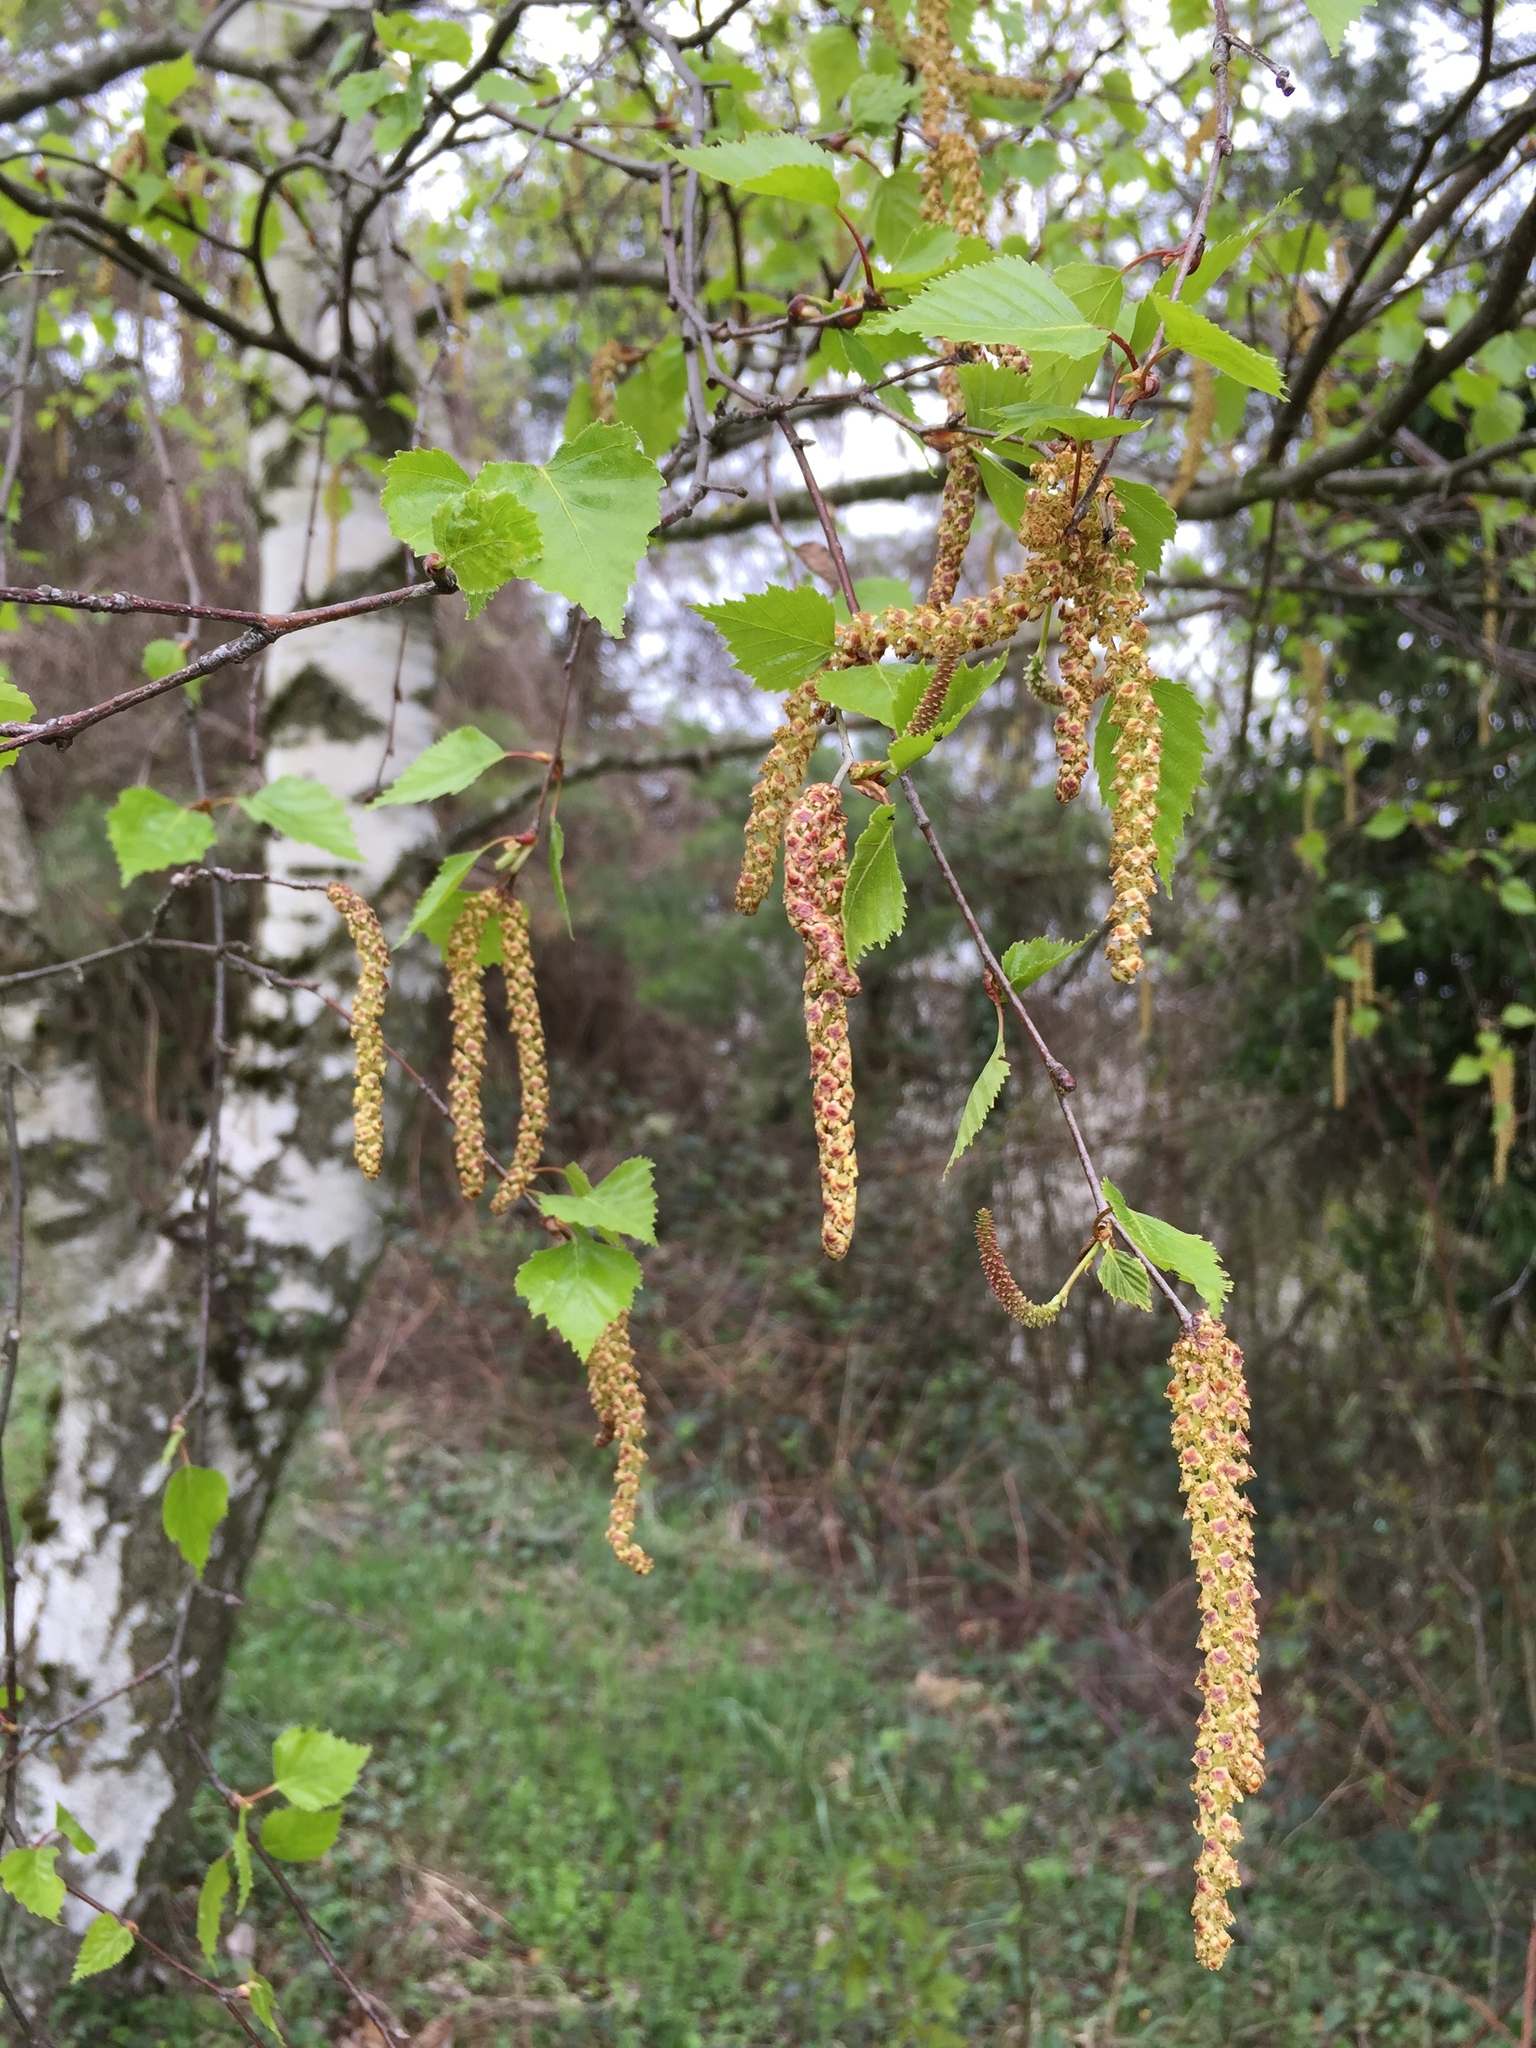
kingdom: Plantae
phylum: Tracheophyta
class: Magnoliopsida
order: Fagales
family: Betulaceae
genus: Betula
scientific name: Betula pendula
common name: Silver birch
